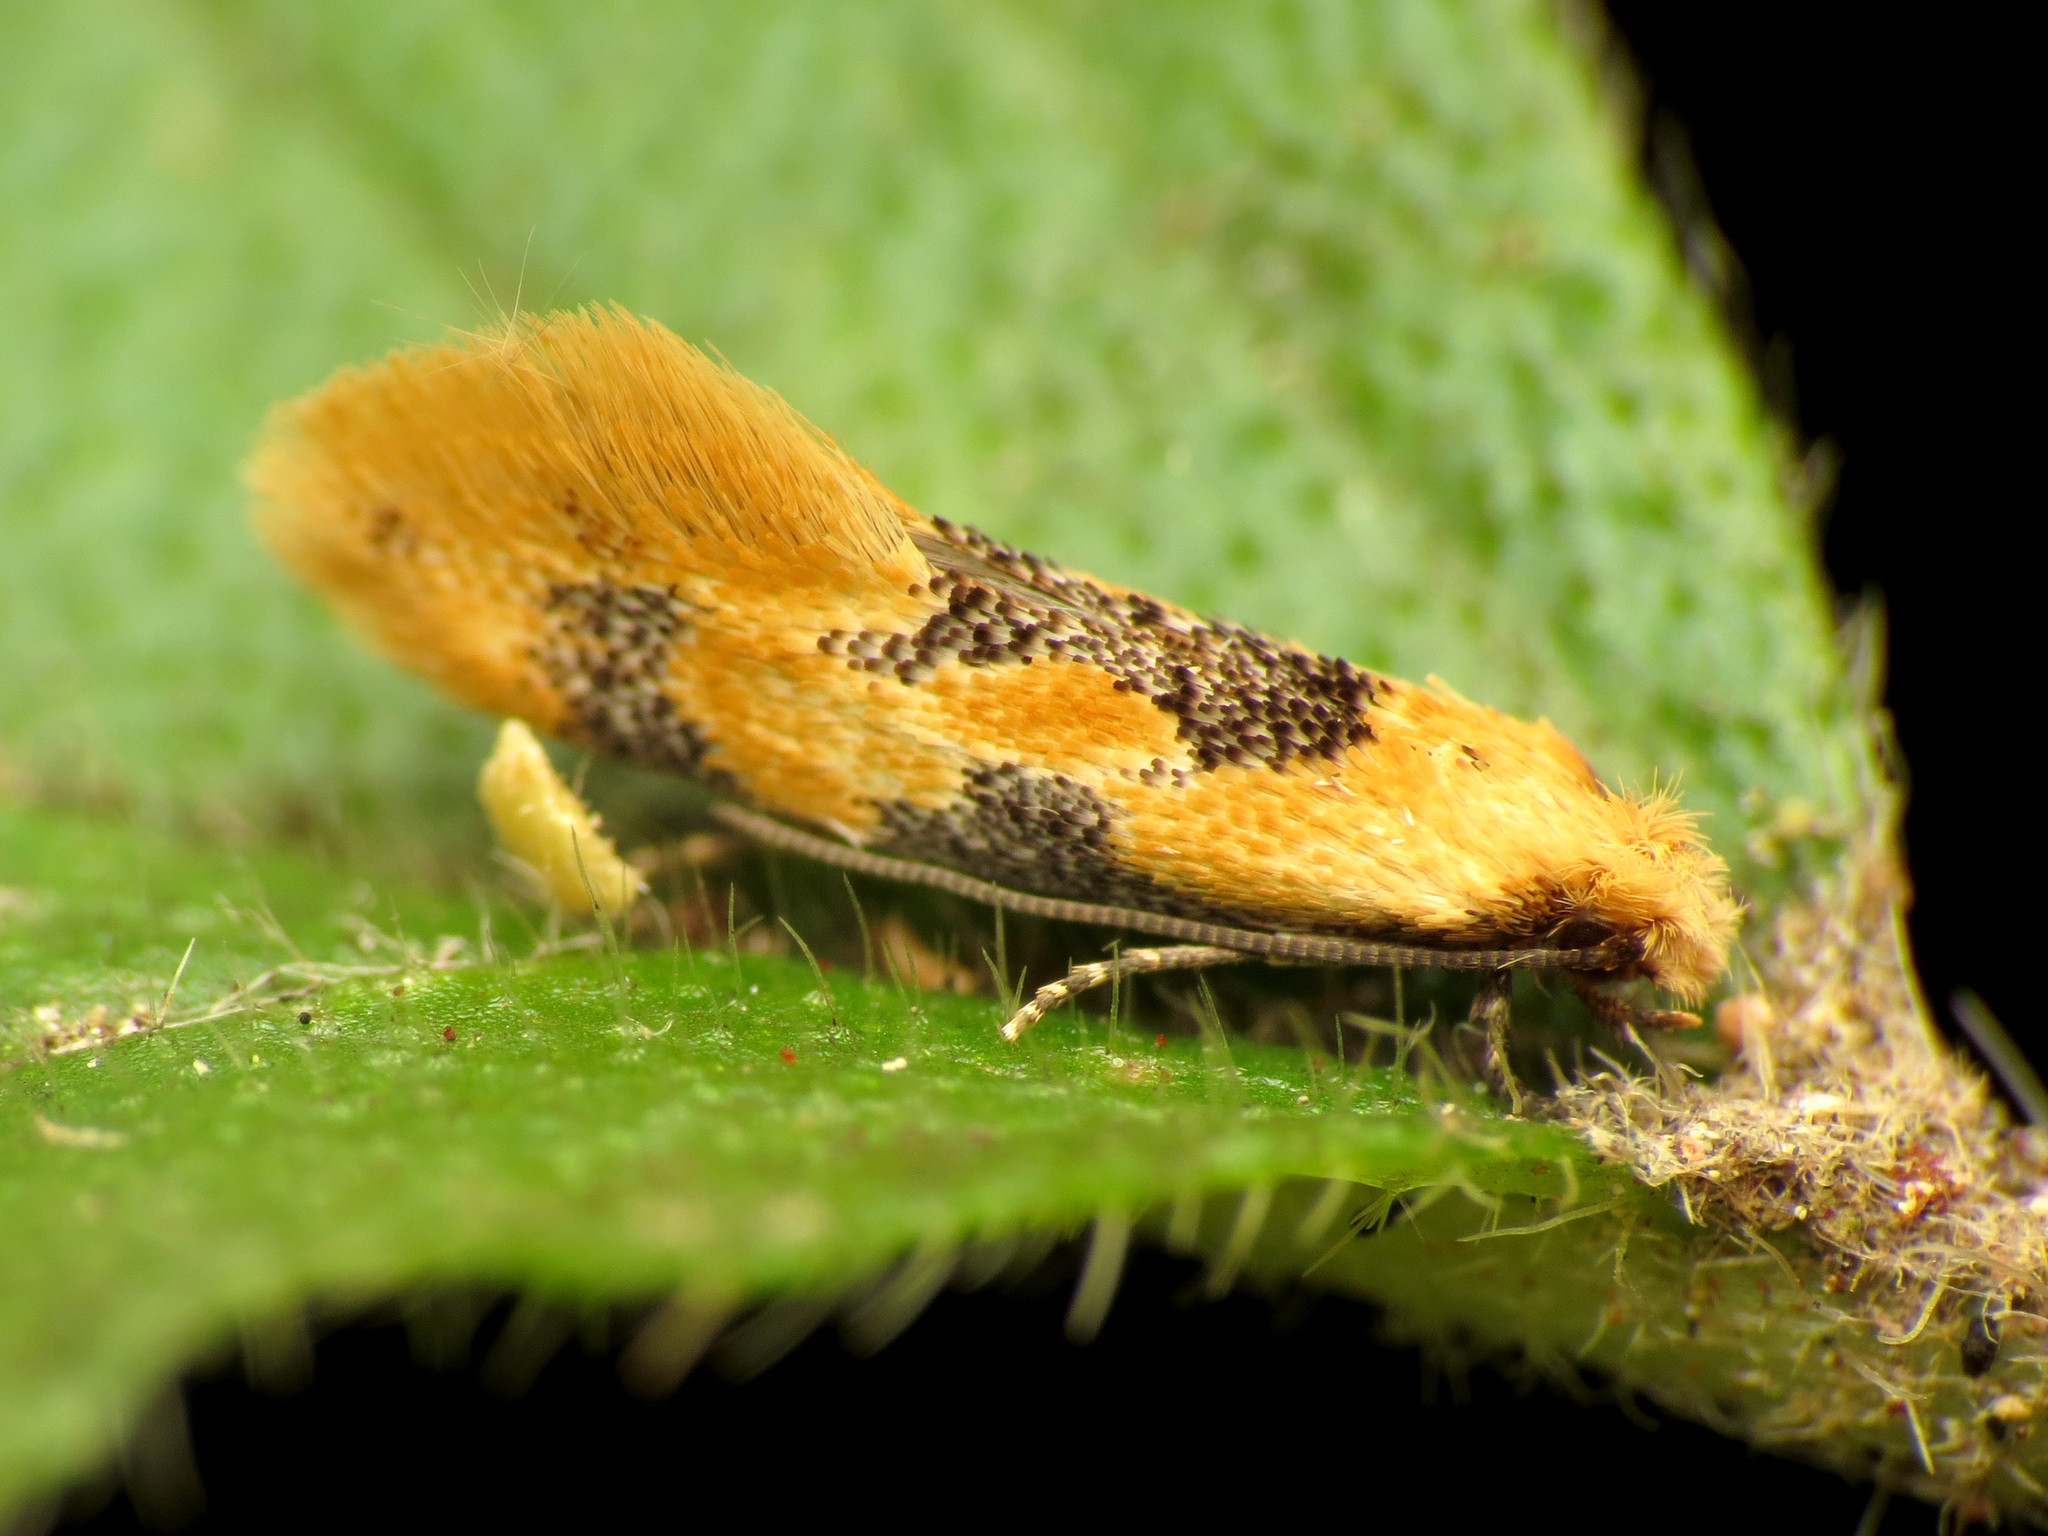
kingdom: Animalia
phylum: Arthropoda
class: Insecta
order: Lepidoptera
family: Meessiidae
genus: Hybroma
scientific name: Hybroma servulella
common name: Yellow wave moth
